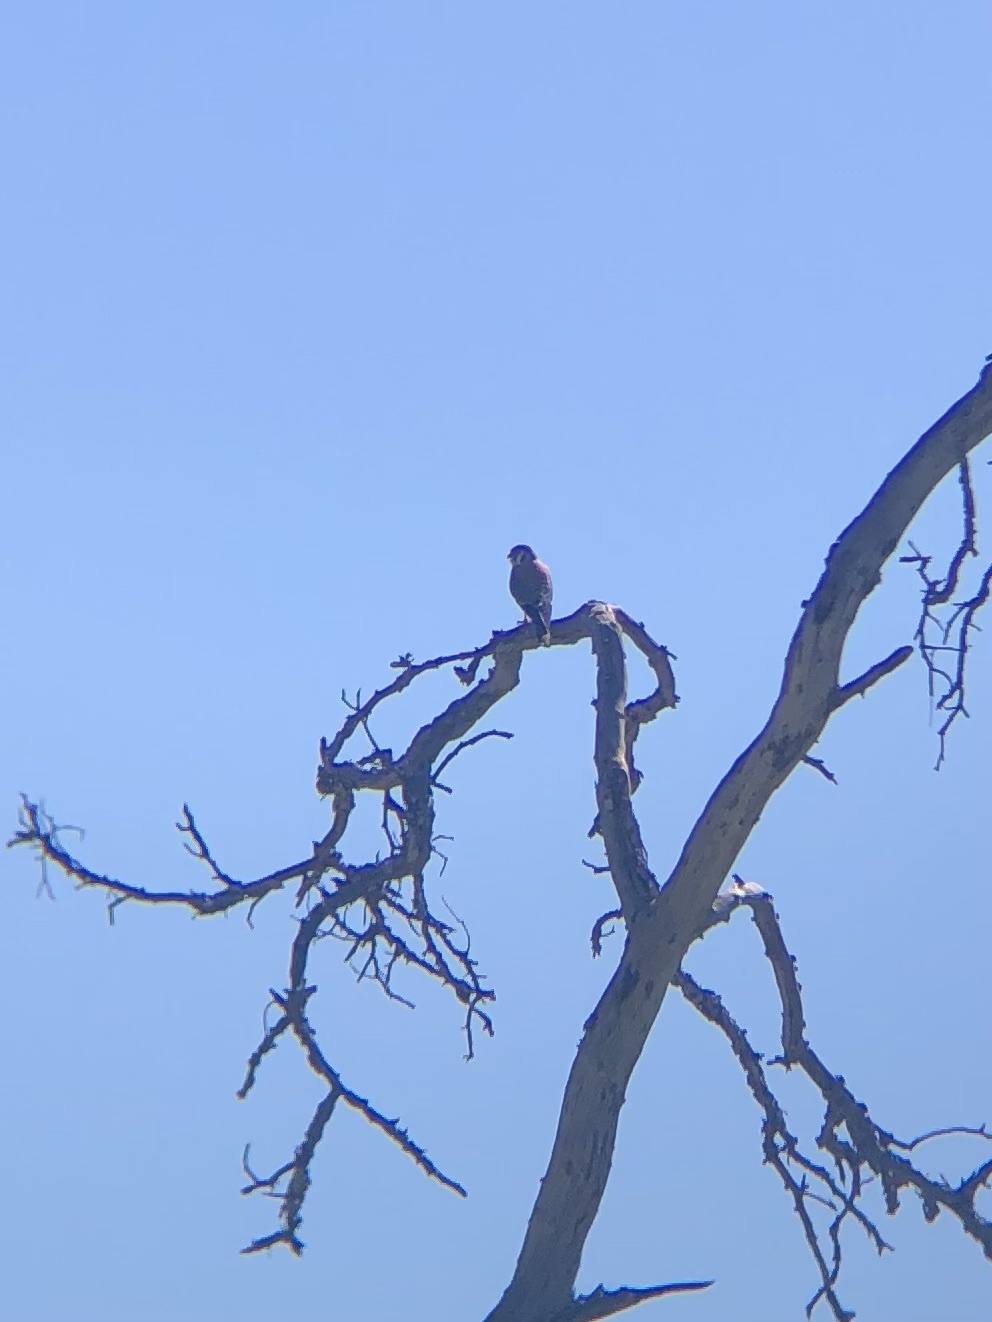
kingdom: Animalia
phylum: Chordata
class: Aves
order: Falconiformes
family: Falconidae
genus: Falco
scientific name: Falco sparverius
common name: American kestrel
